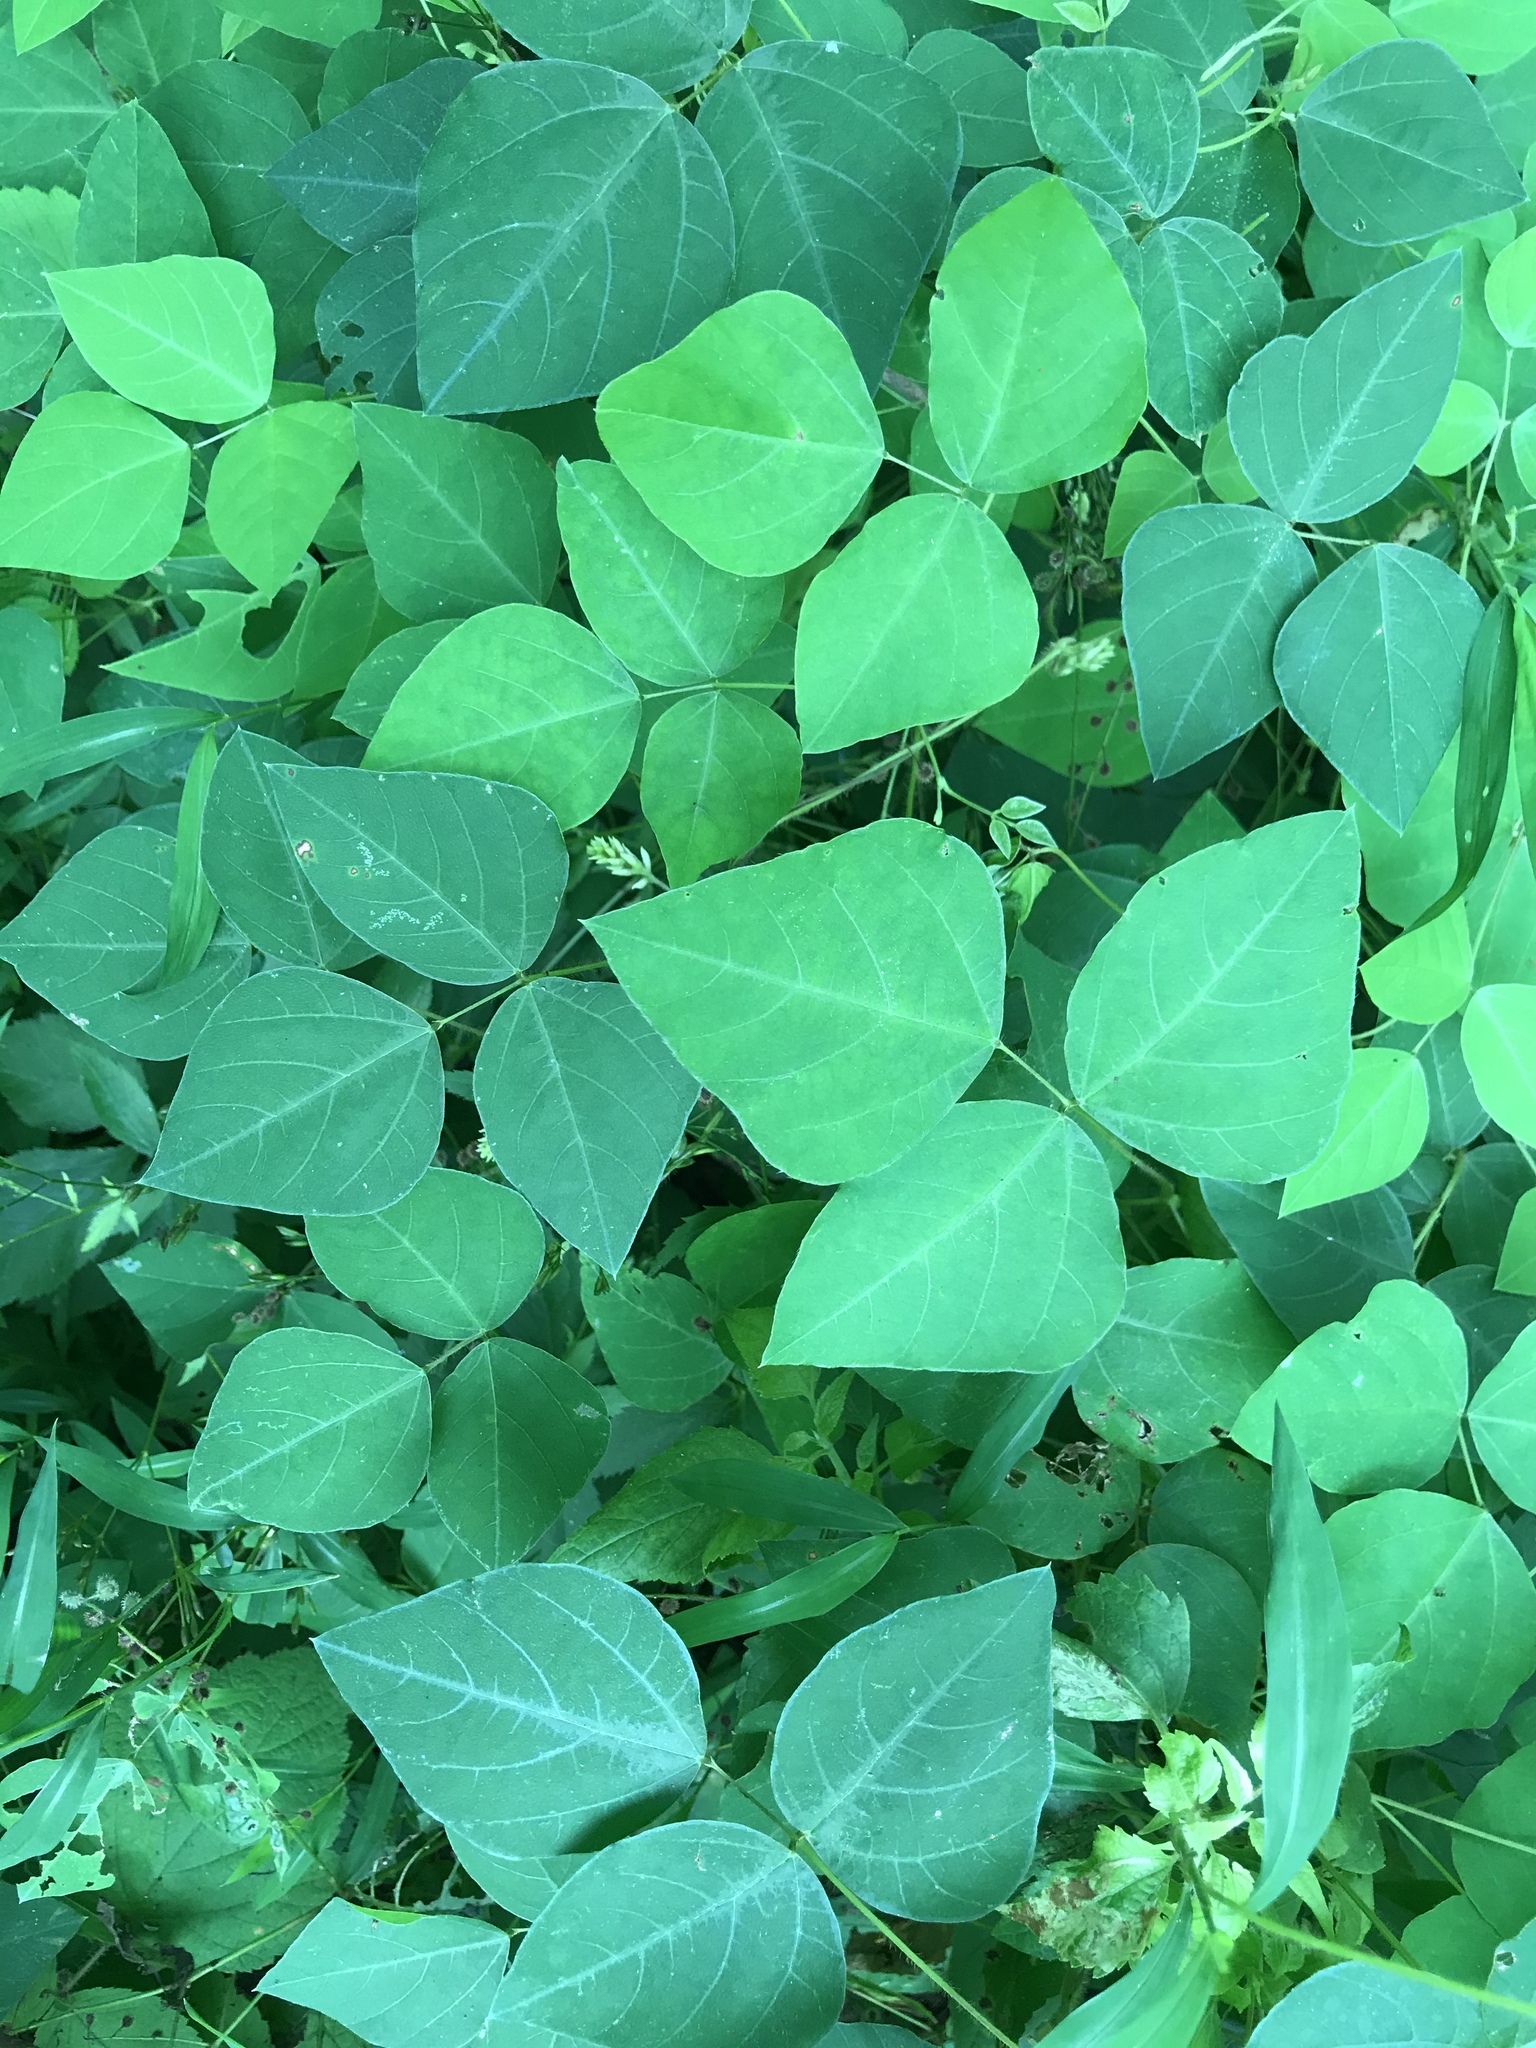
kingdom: Plantae
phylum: Tracheophyta
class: Magnoliopsida
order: Fabales
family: Fabaceae
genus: Amphicarpaea
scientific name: Amphicarpaea bracteata
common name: American hog peanut
